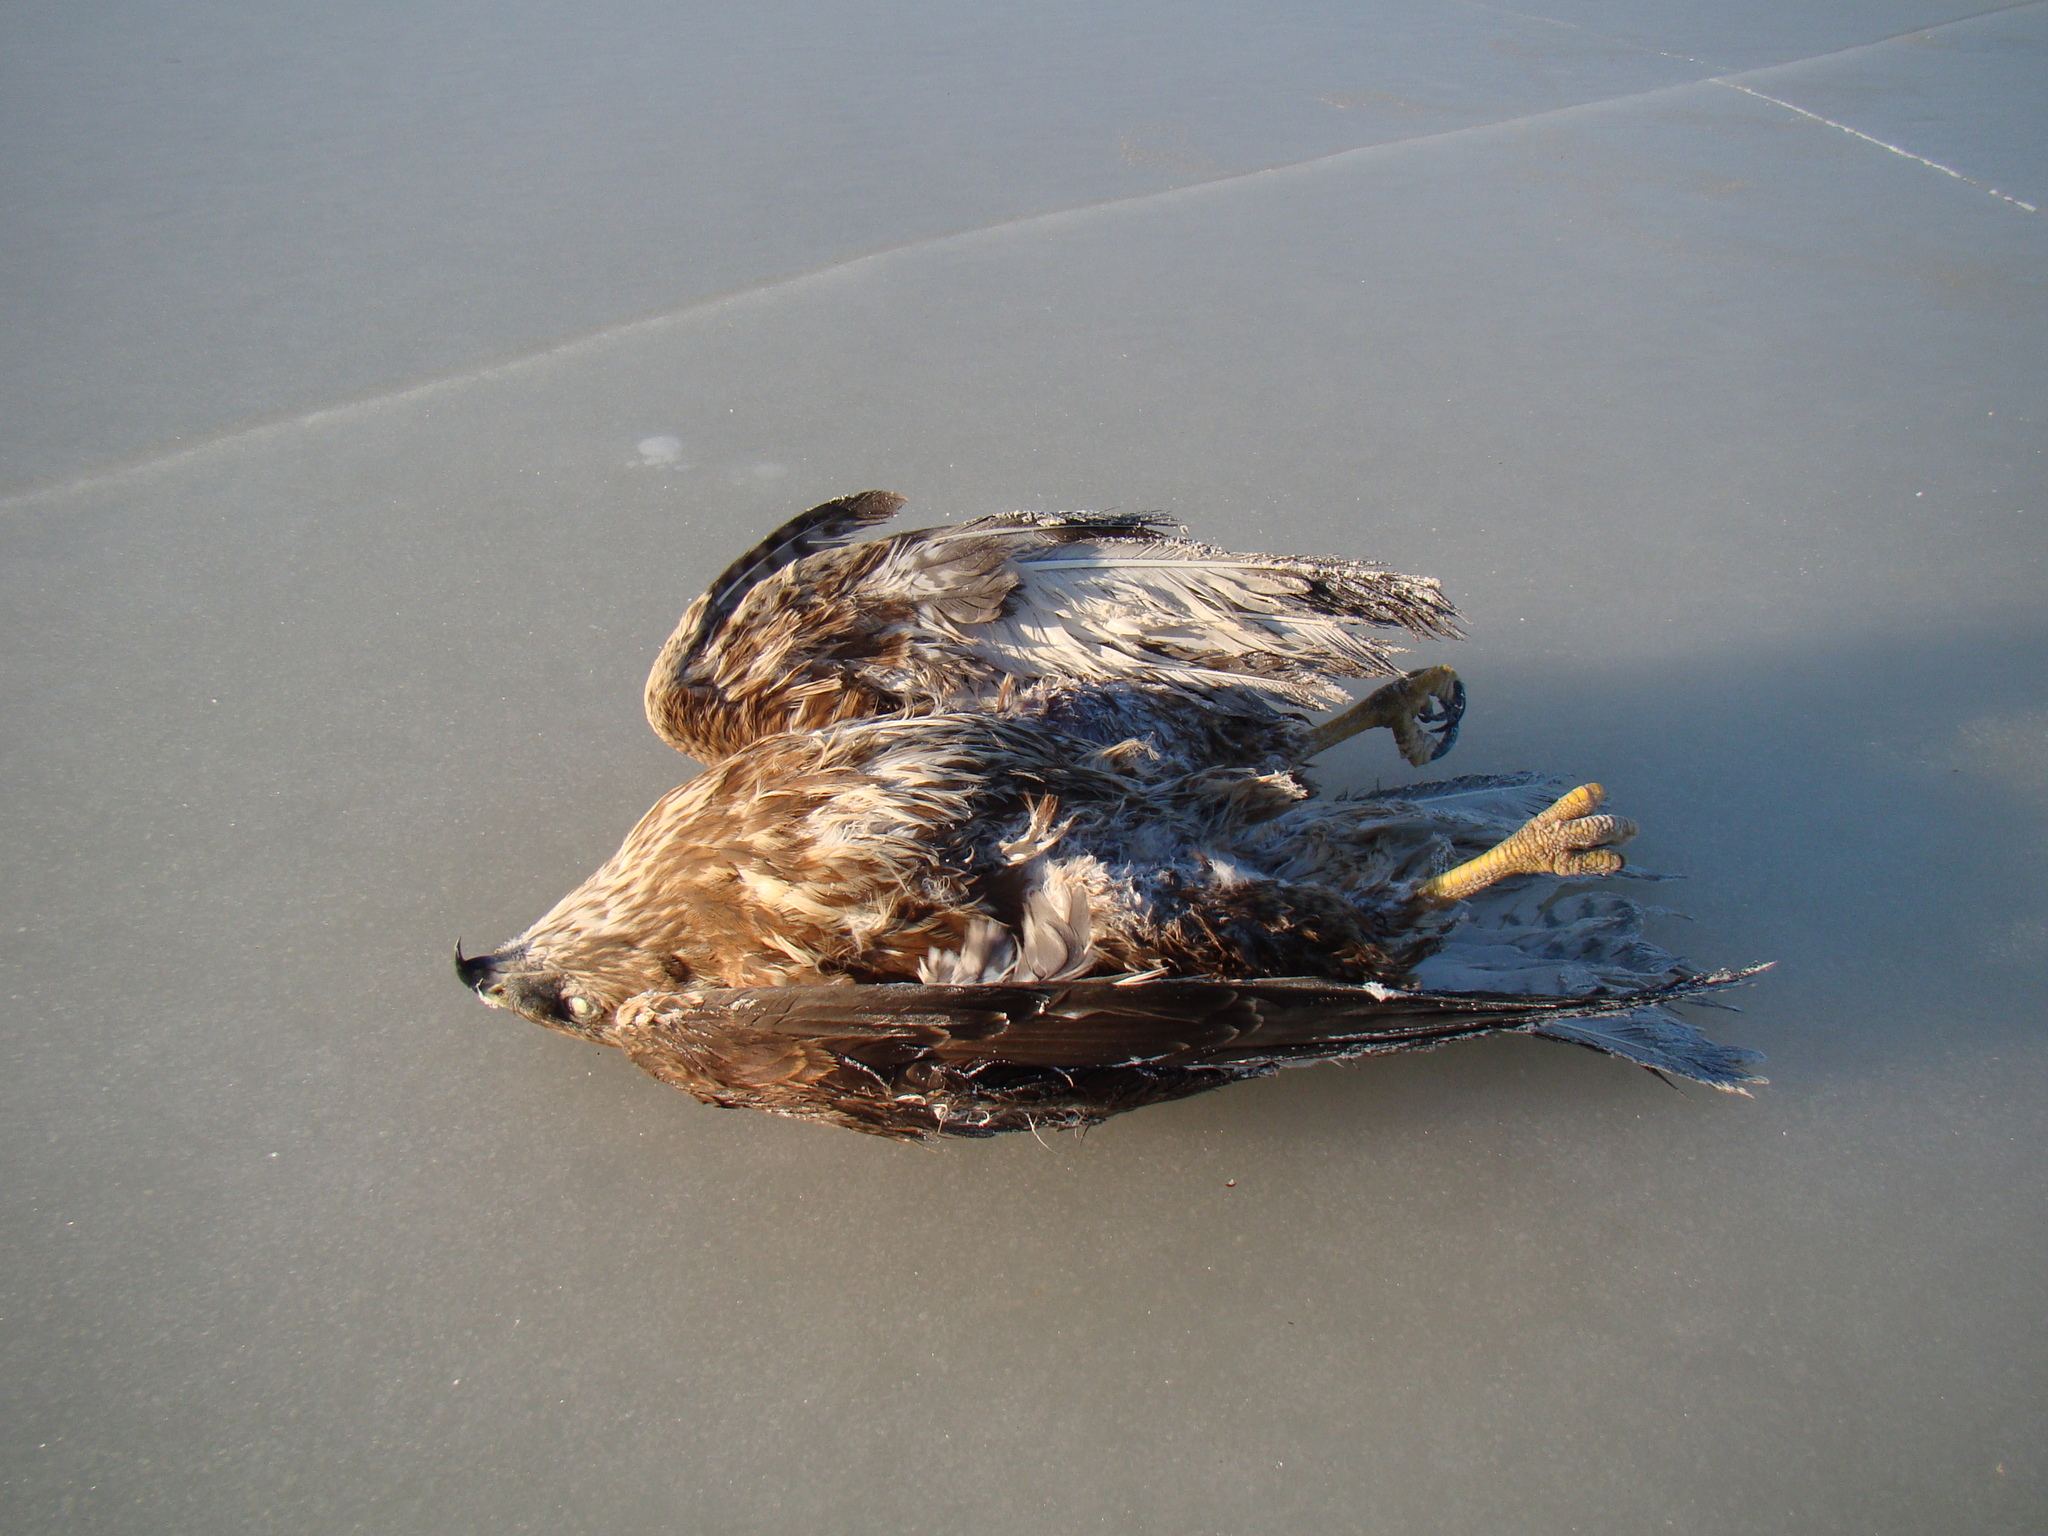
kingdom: Animalia
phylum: Chordata
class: Aves
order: Accipitriformes
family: Accipitridae
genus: Buteo
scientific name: Buteo buteo
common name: Common buzzard
